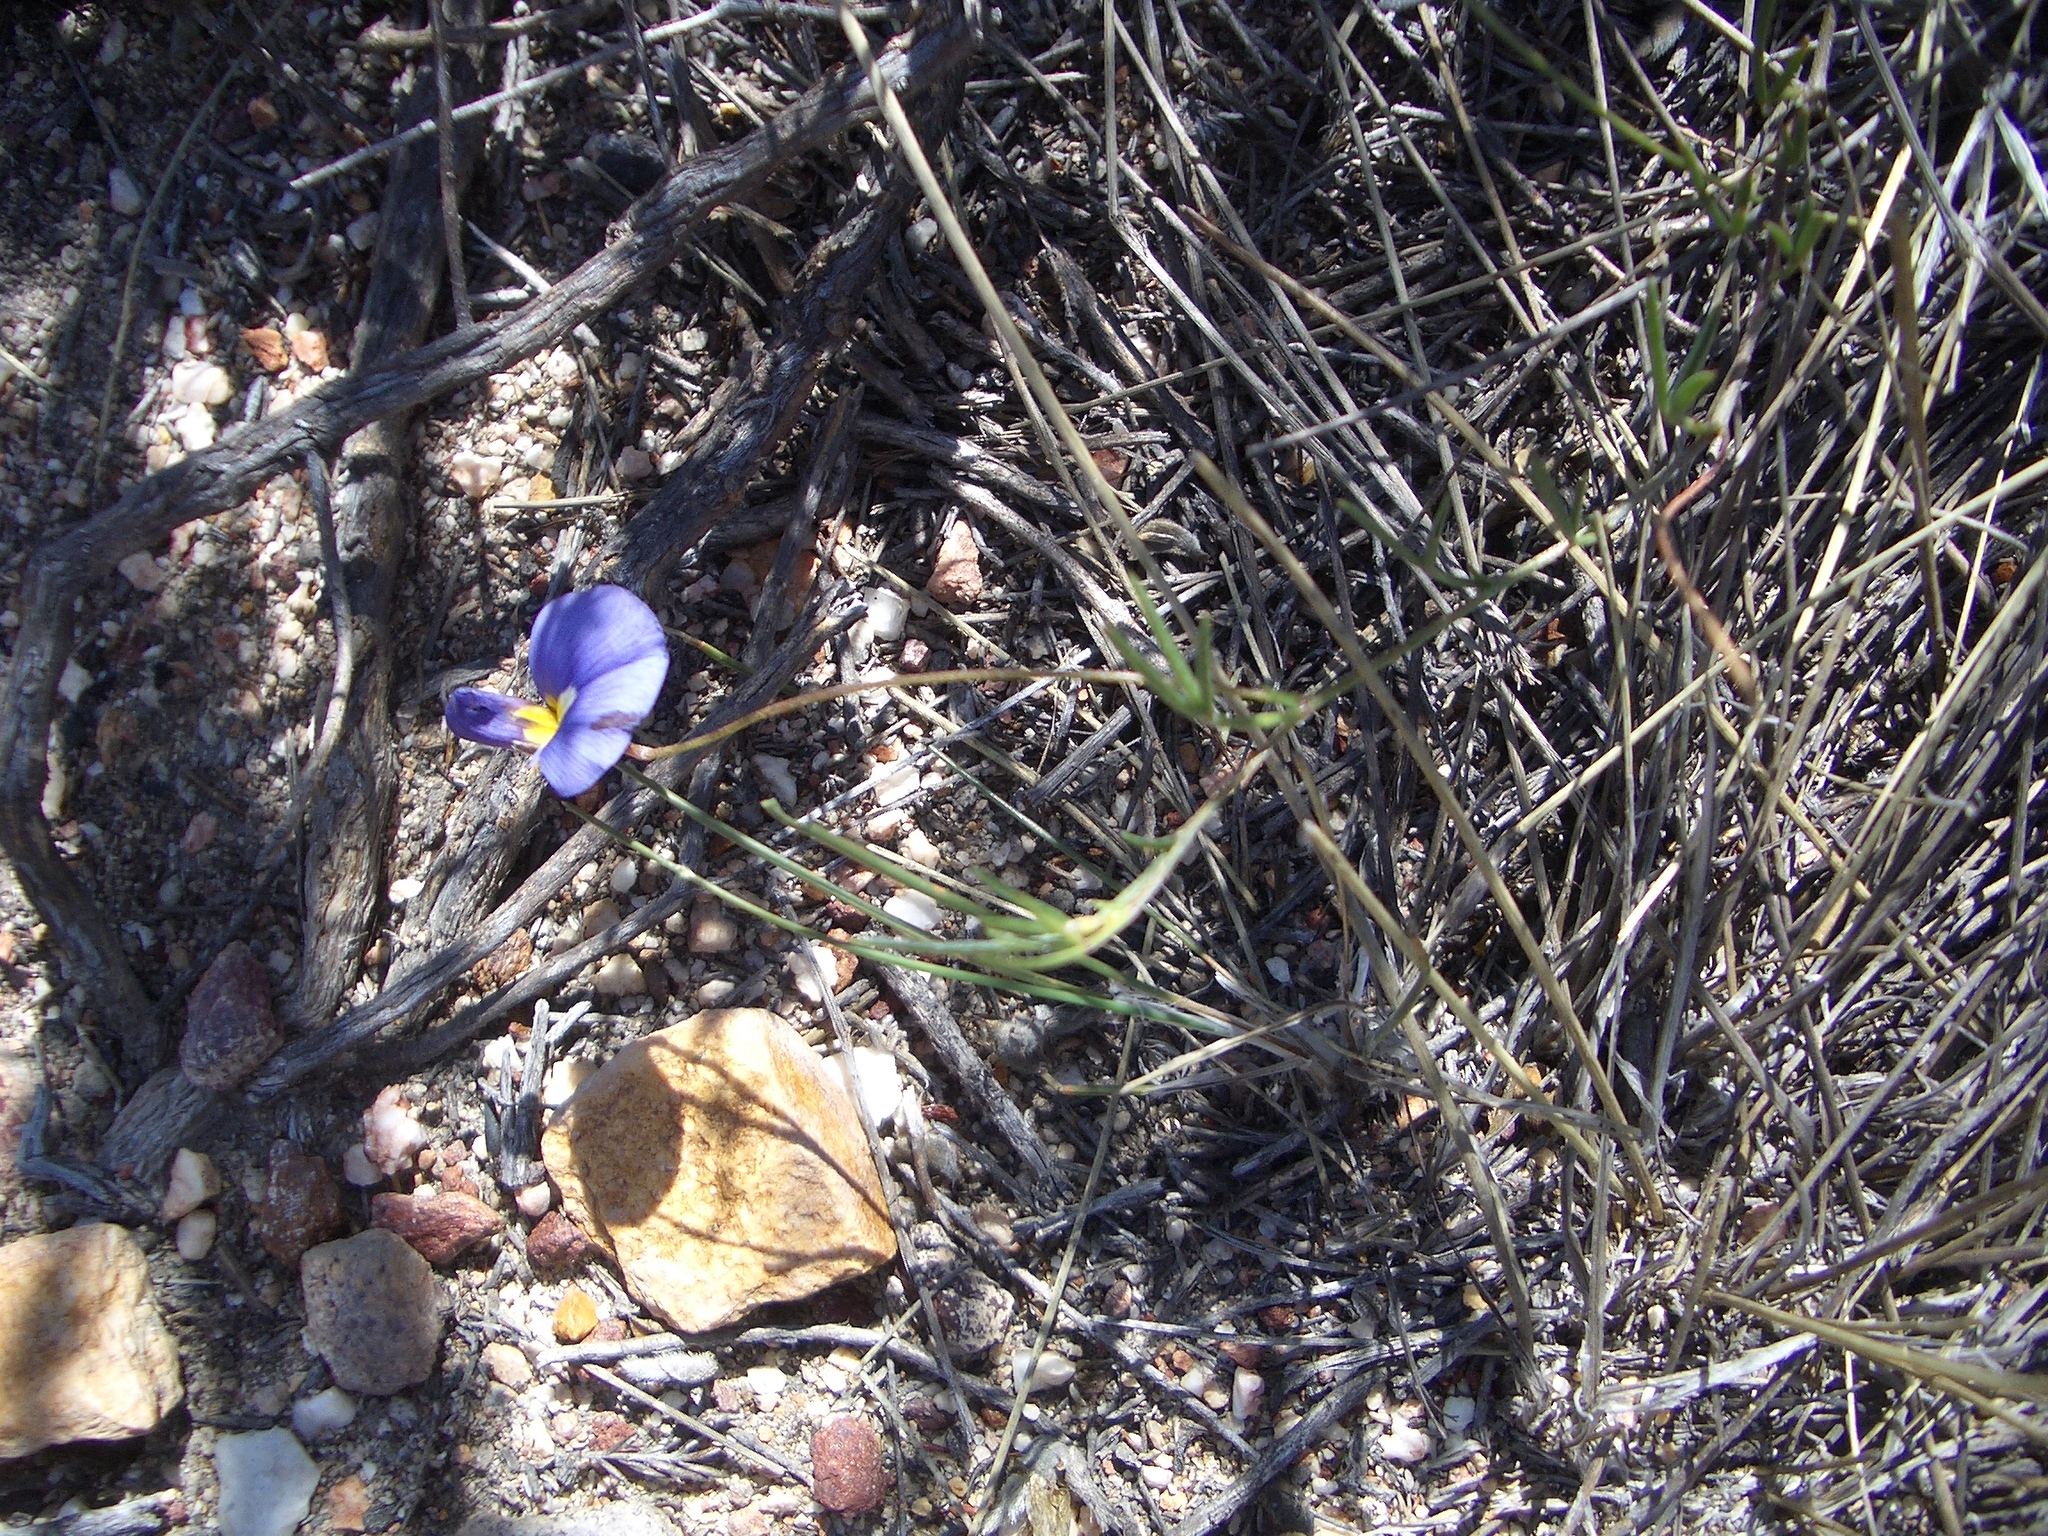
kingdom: Plantae
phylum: Tracheophyta
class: Magnoliopsida
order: Fabales
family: Fabaceae
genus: Lotononis
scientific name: Lotononis filiformis
